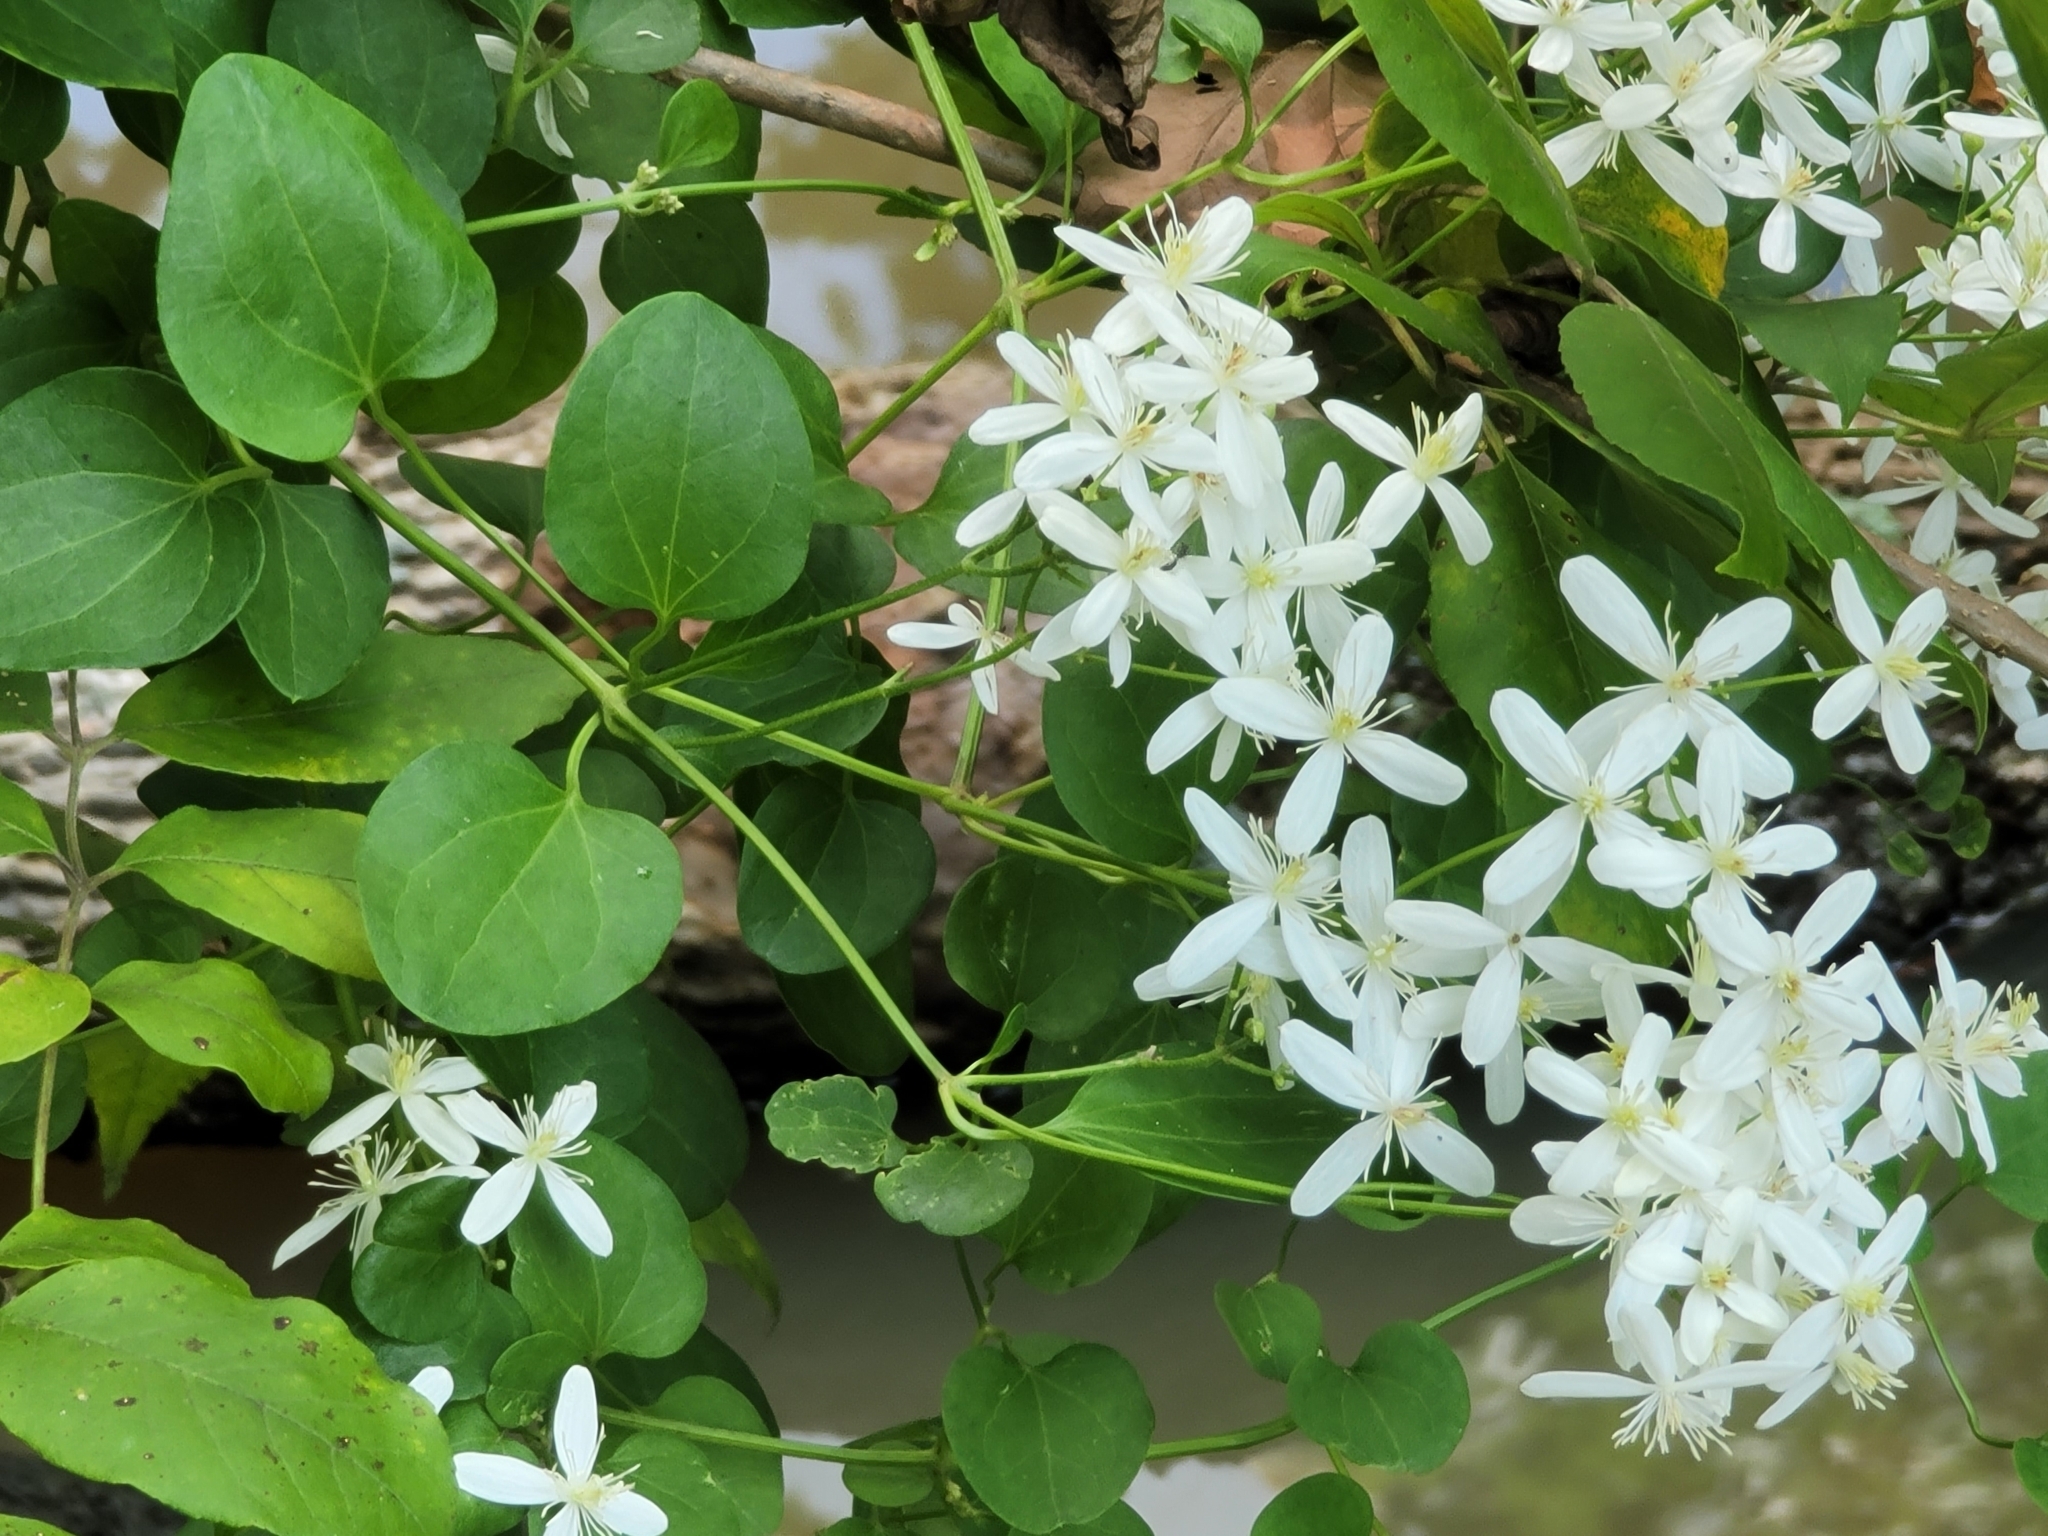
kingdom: Plantae
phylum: Tracheophyta
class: Magnoliopsida
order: Ranunculales
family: Ranunculaceae
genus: Clematis
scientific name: Clematis terniflora
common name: Sweet autumn clematis
